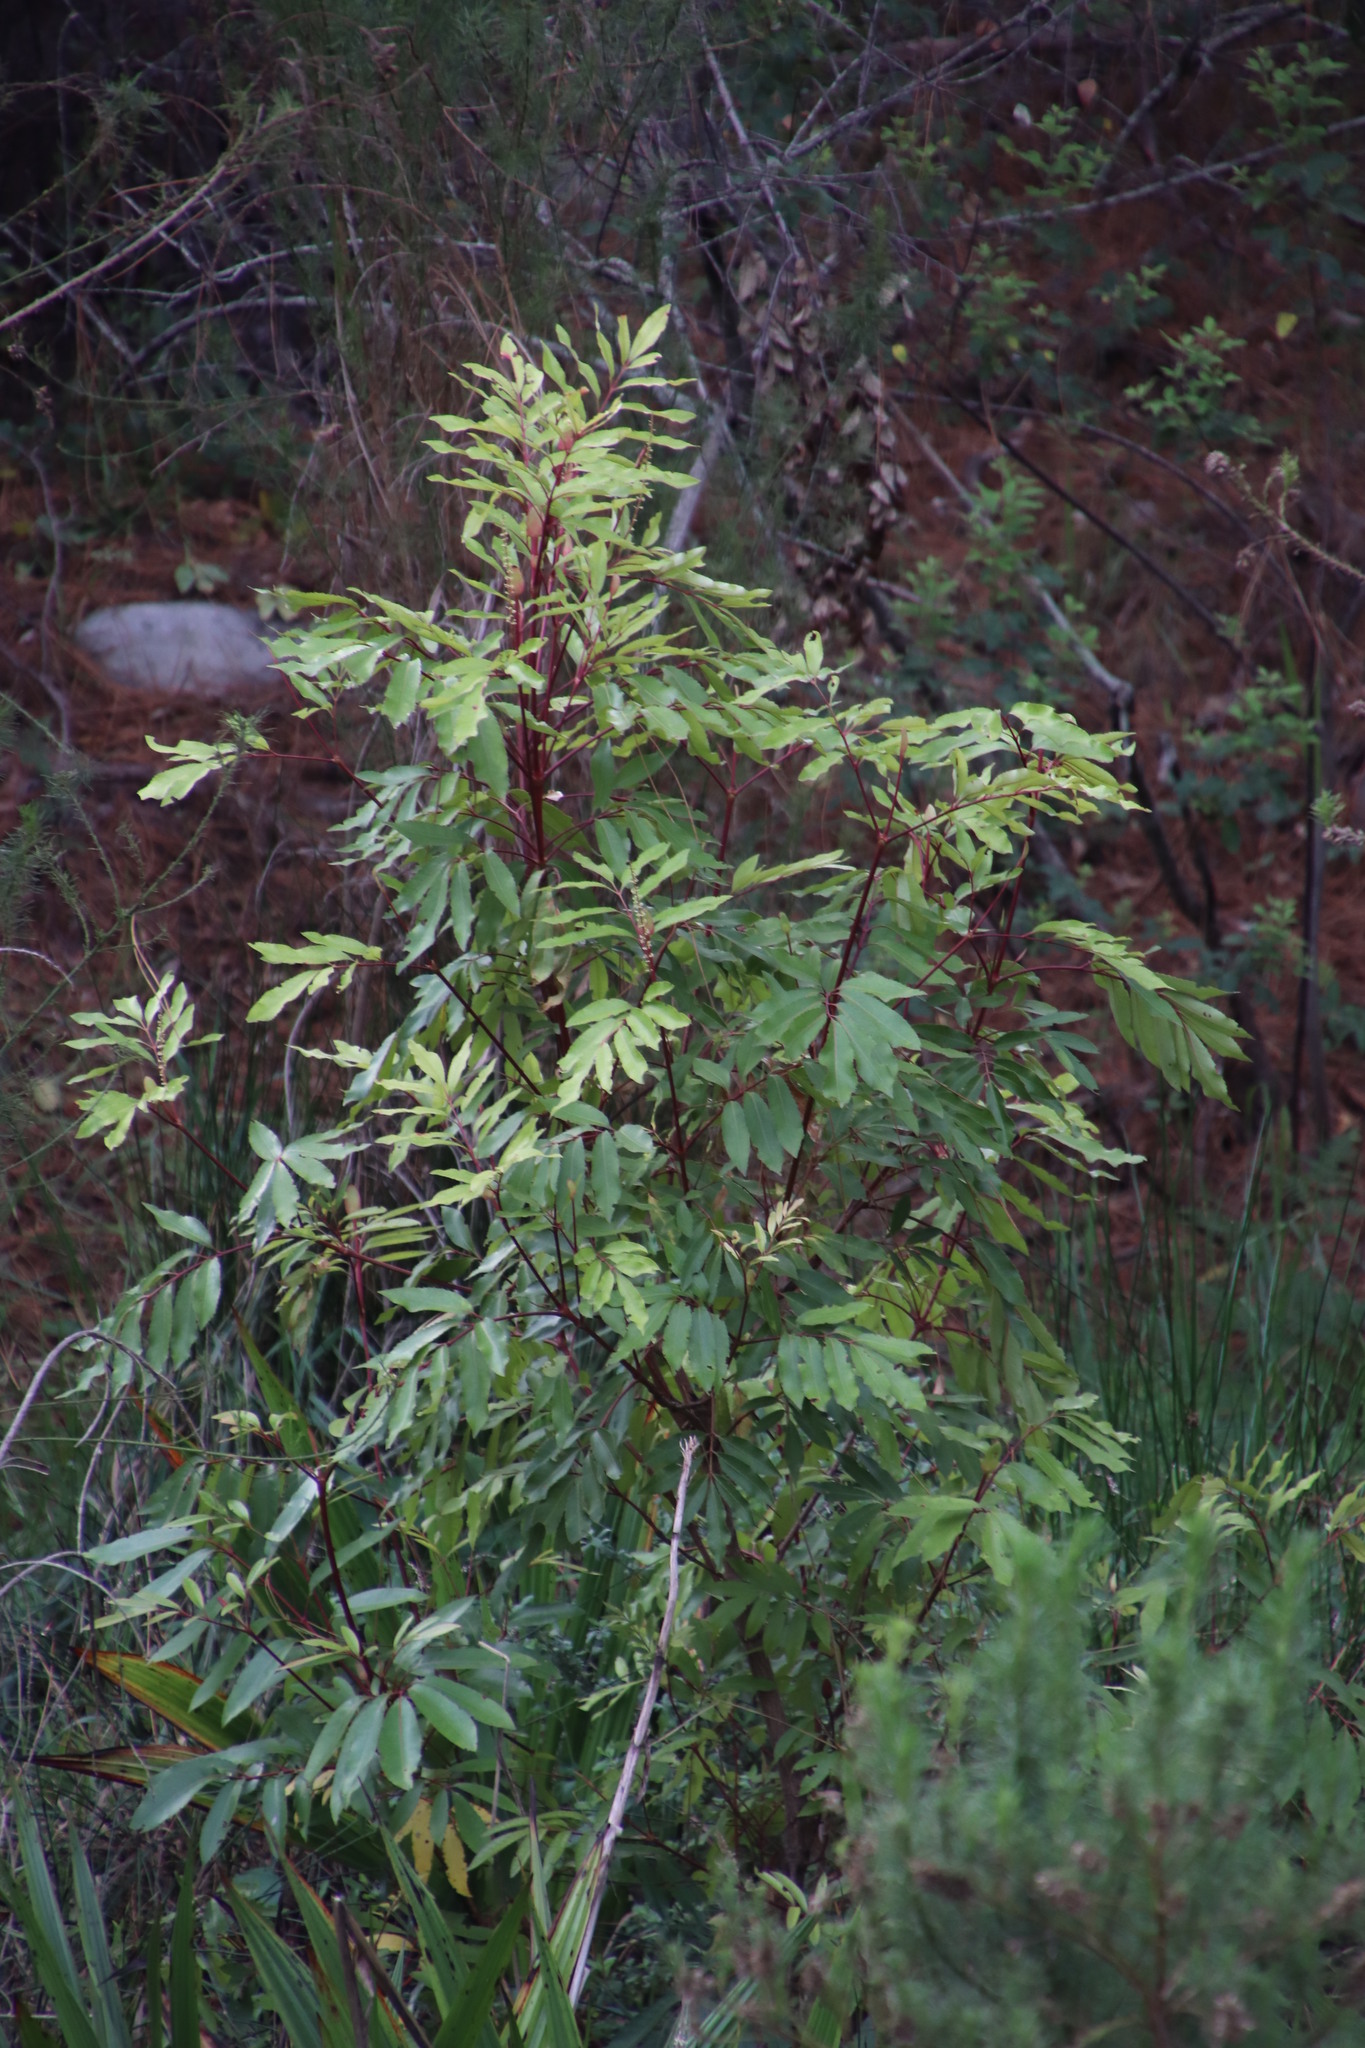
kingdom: Plantae
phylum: Tracheophyta
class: Magnoliopsida
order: Oxalidales
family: Cunoniaceae
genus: Cunonia
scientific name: Cunonia capensis
